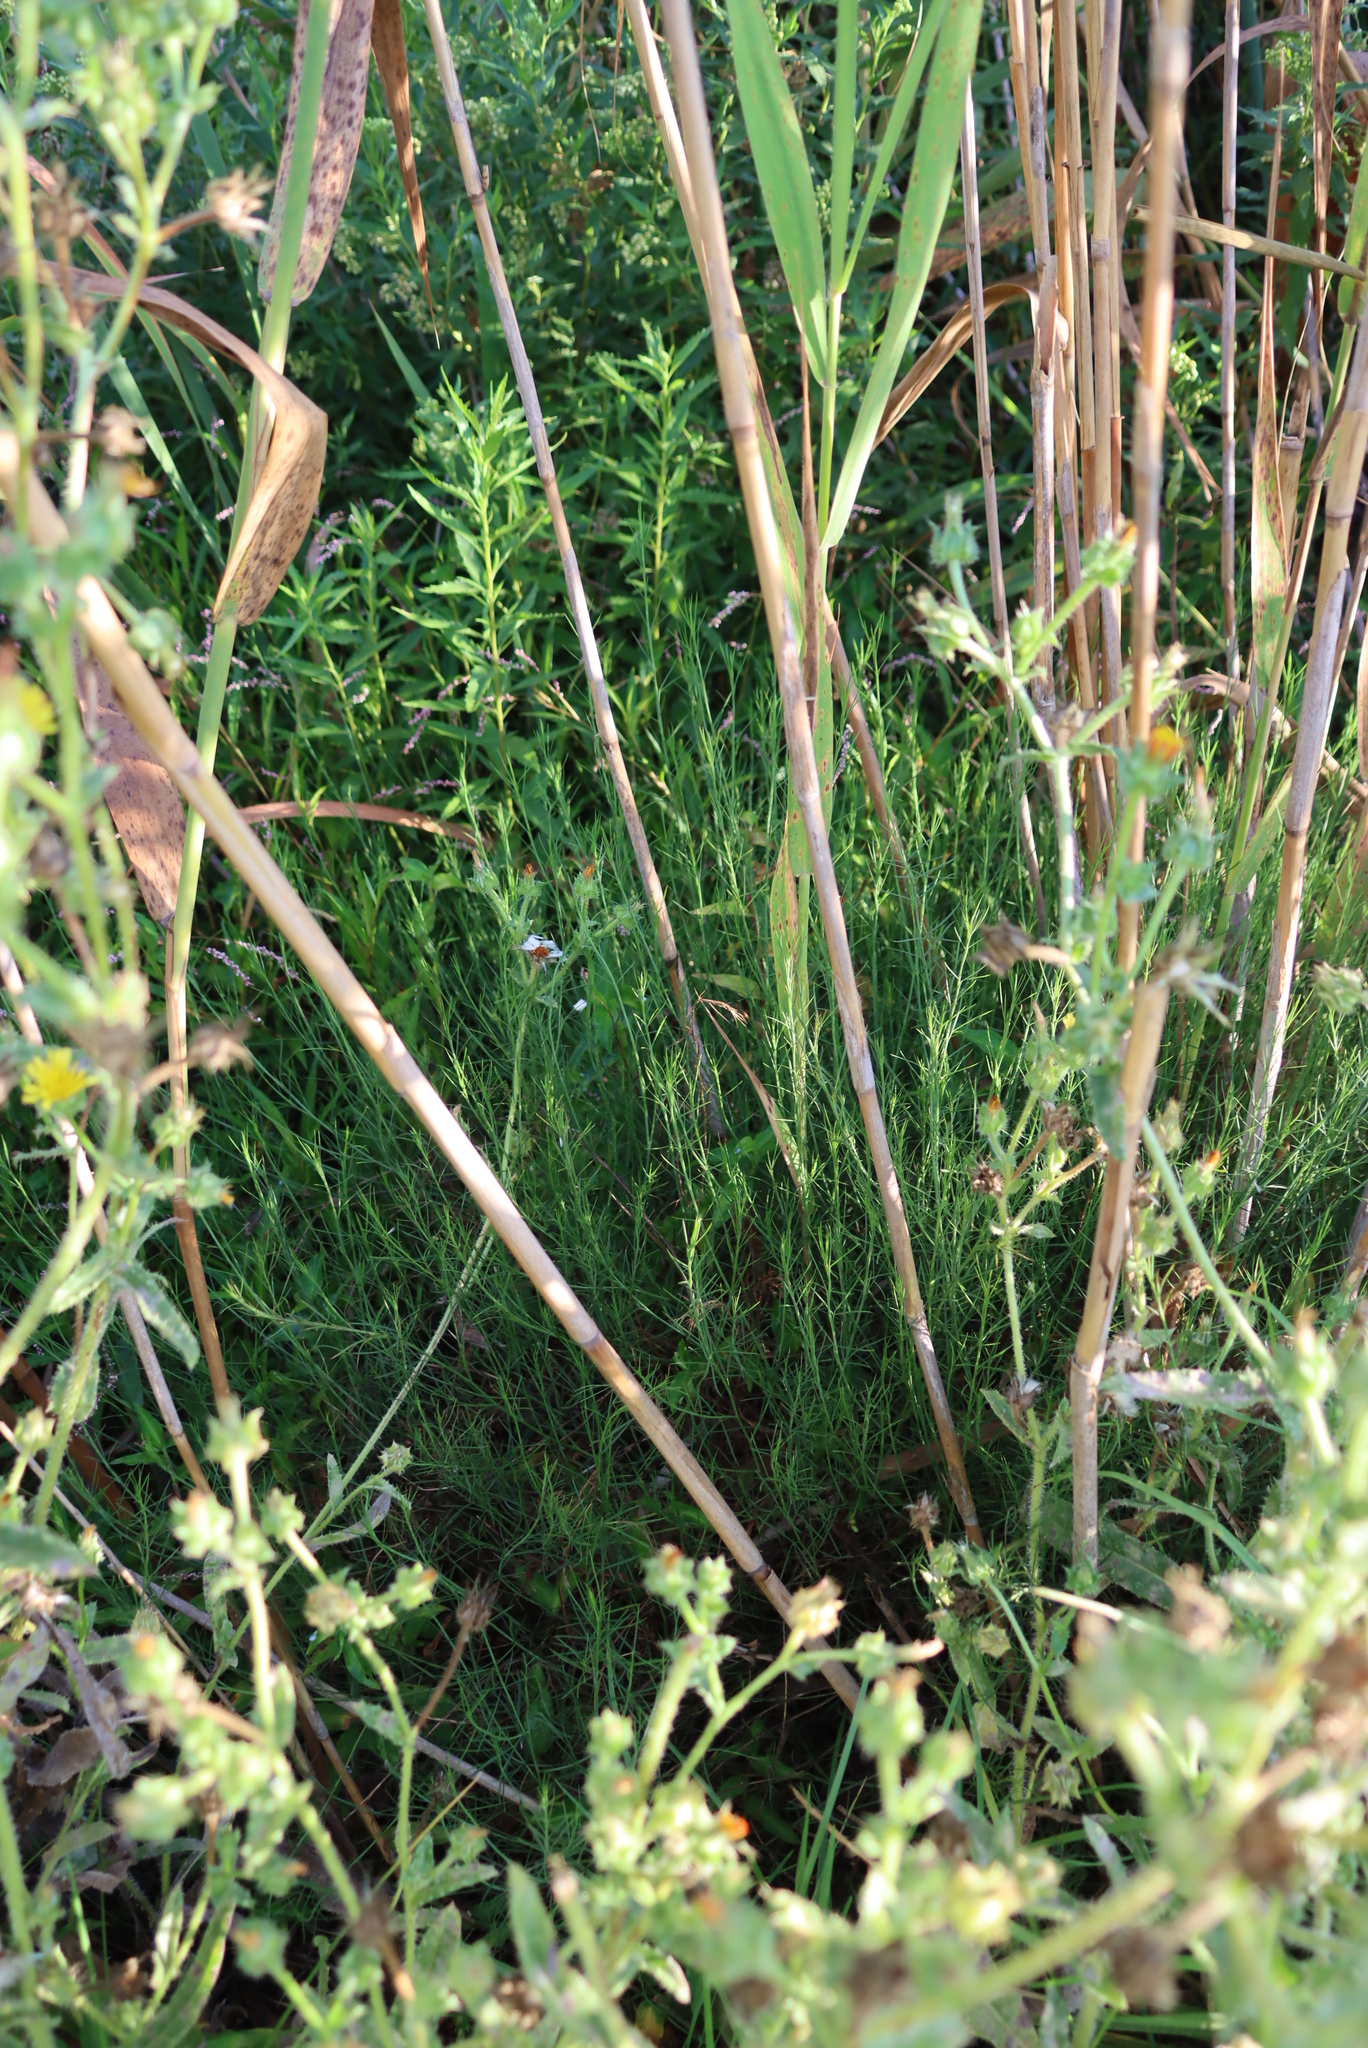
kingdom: Plantae
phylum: Tracheophyta
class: Magnoliopsida
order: Fabales
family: Fabaceae
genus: Psoralea
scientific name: Psoralea fascicularis
